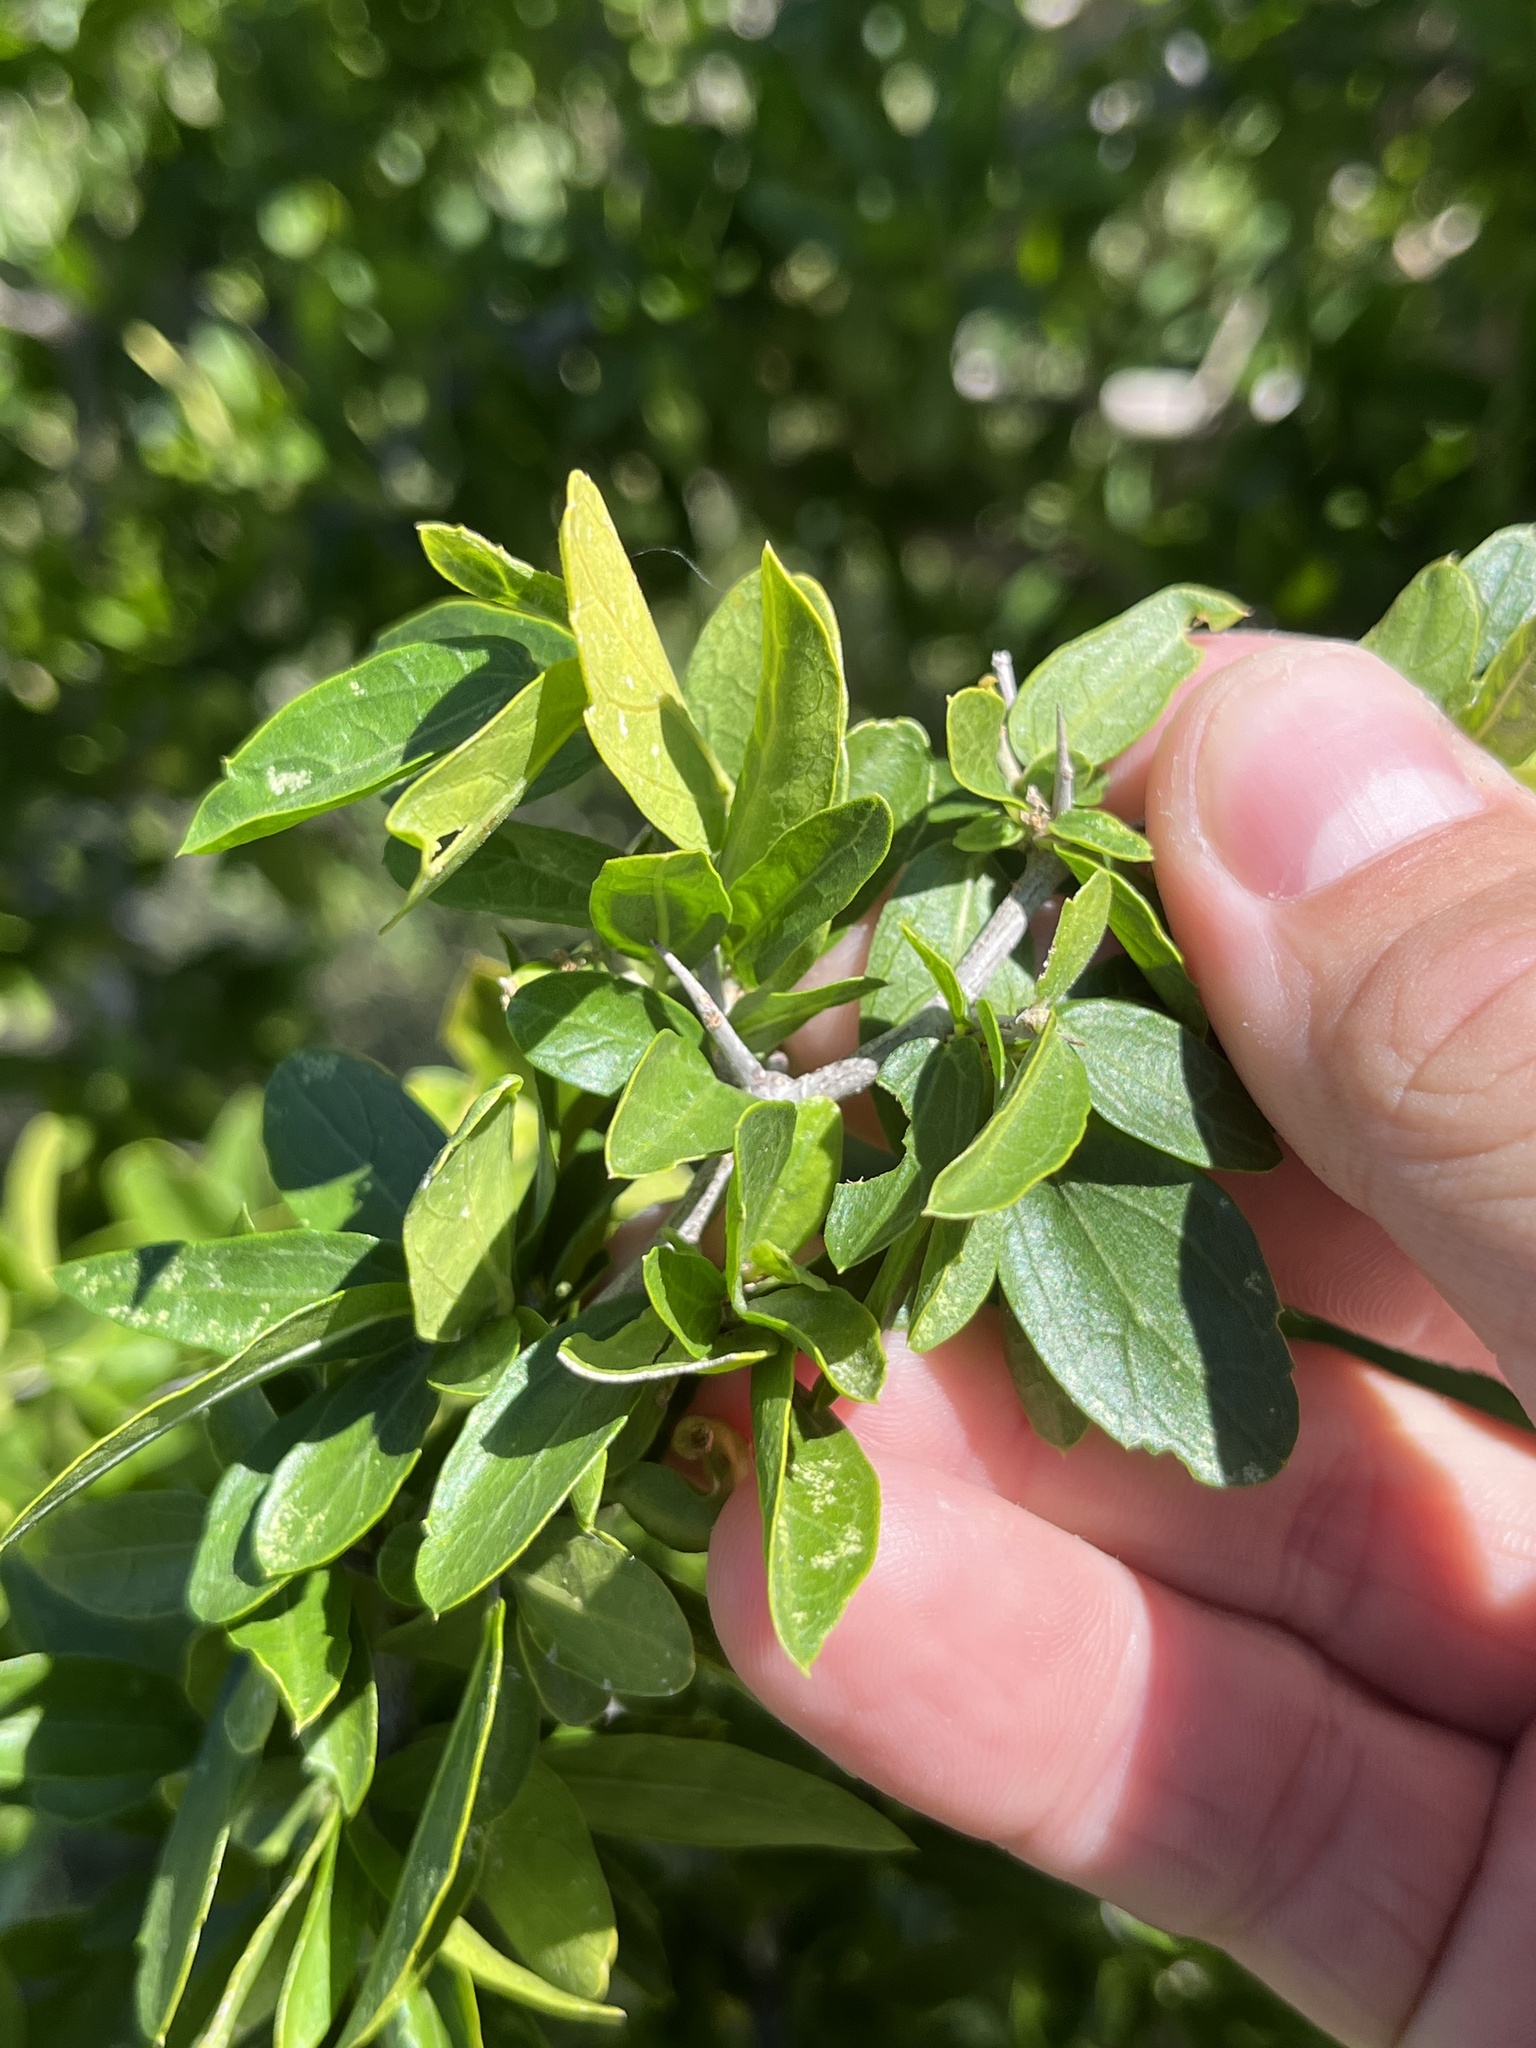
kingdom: Plantae
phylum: Tracheophyta
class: Magnoliopsida
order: Rosales
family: Cannabaceae
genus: Celtis
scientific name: Celtis pallida
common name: Desert hackberry
